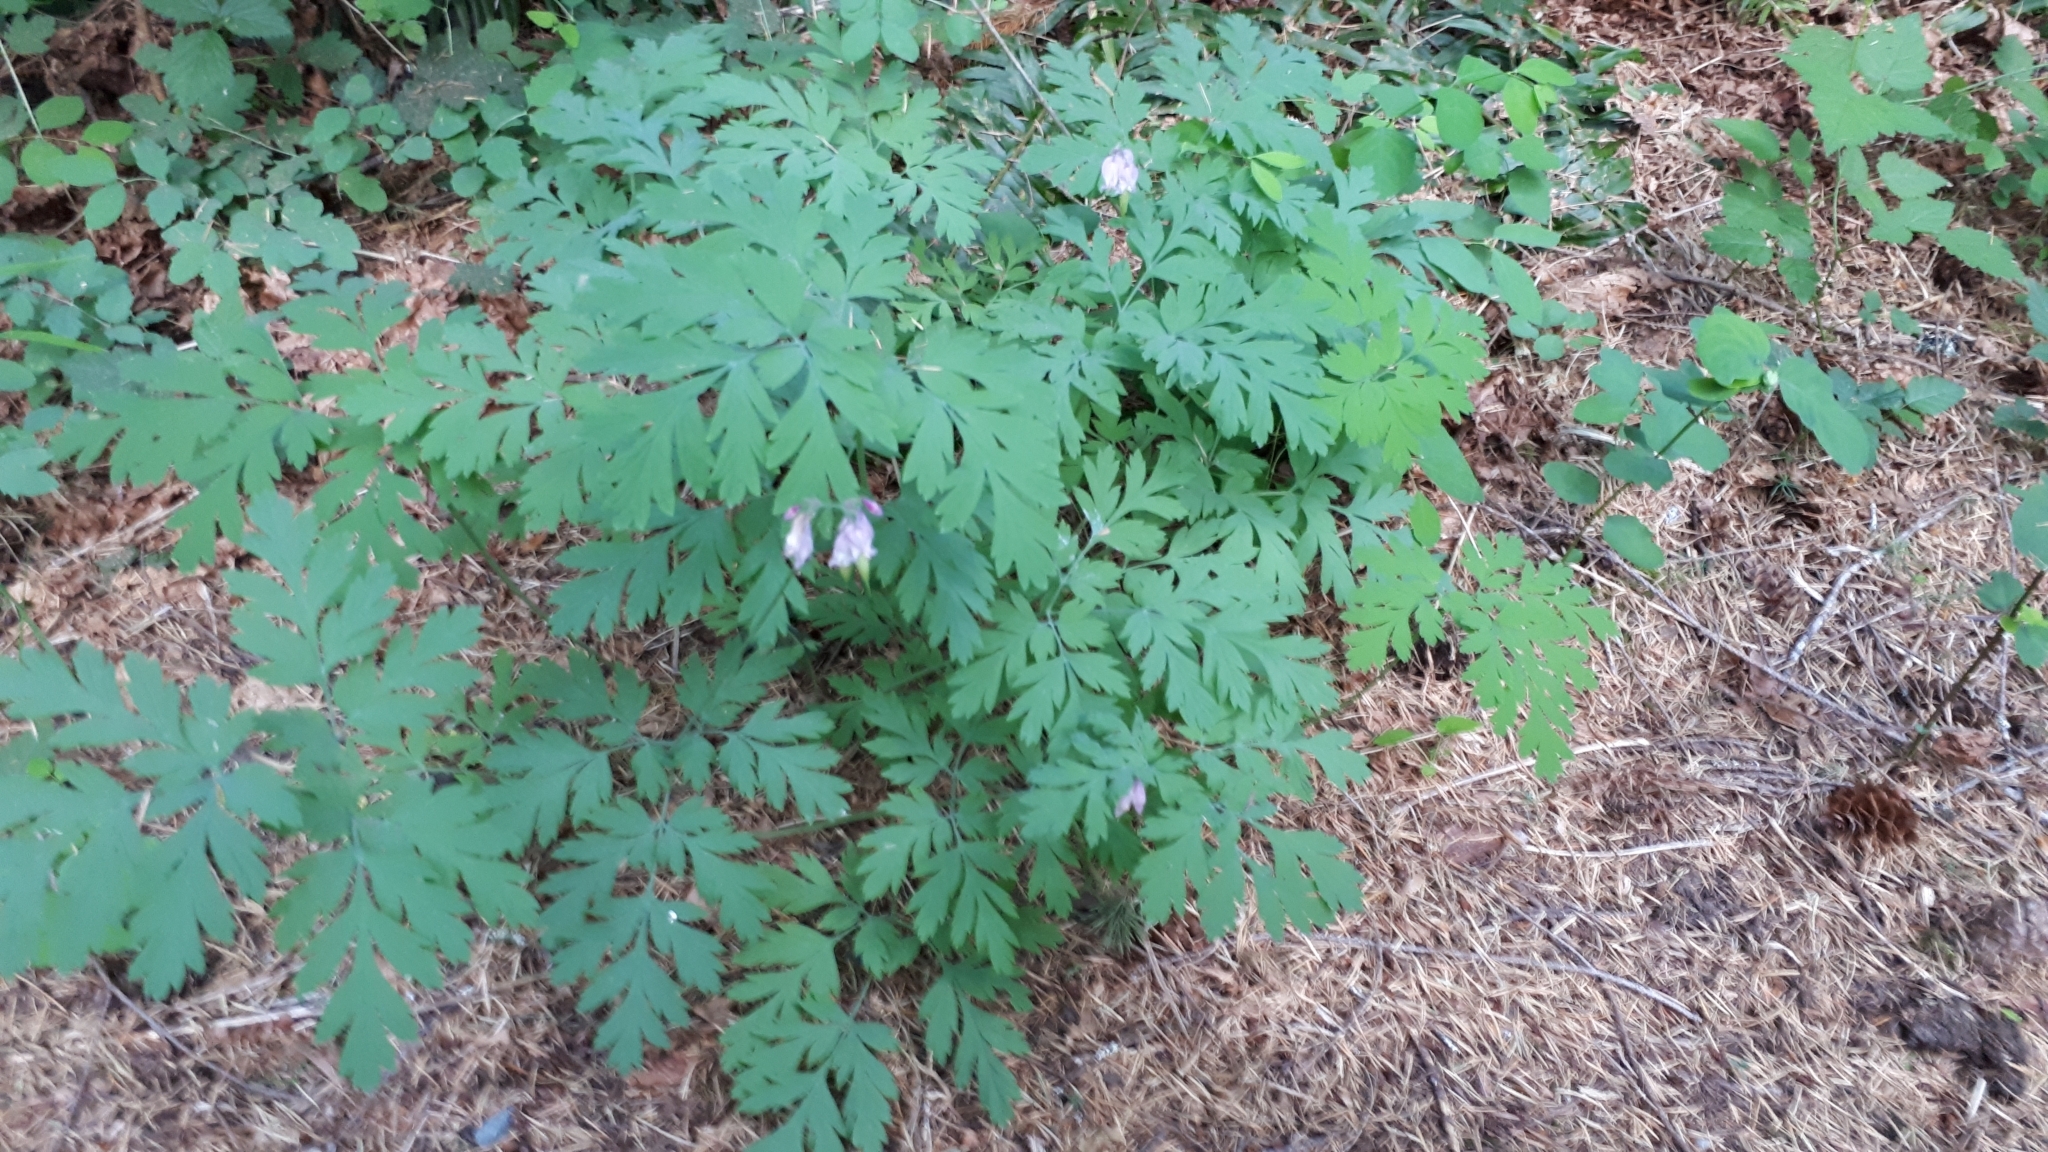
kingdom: Plantae
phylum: Tracheophyta
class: Magnoliopsida
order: Ranunculales
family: Papaveraceae
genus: Dicentra
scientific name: Dicentra formosa
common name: Bleeding-heart
